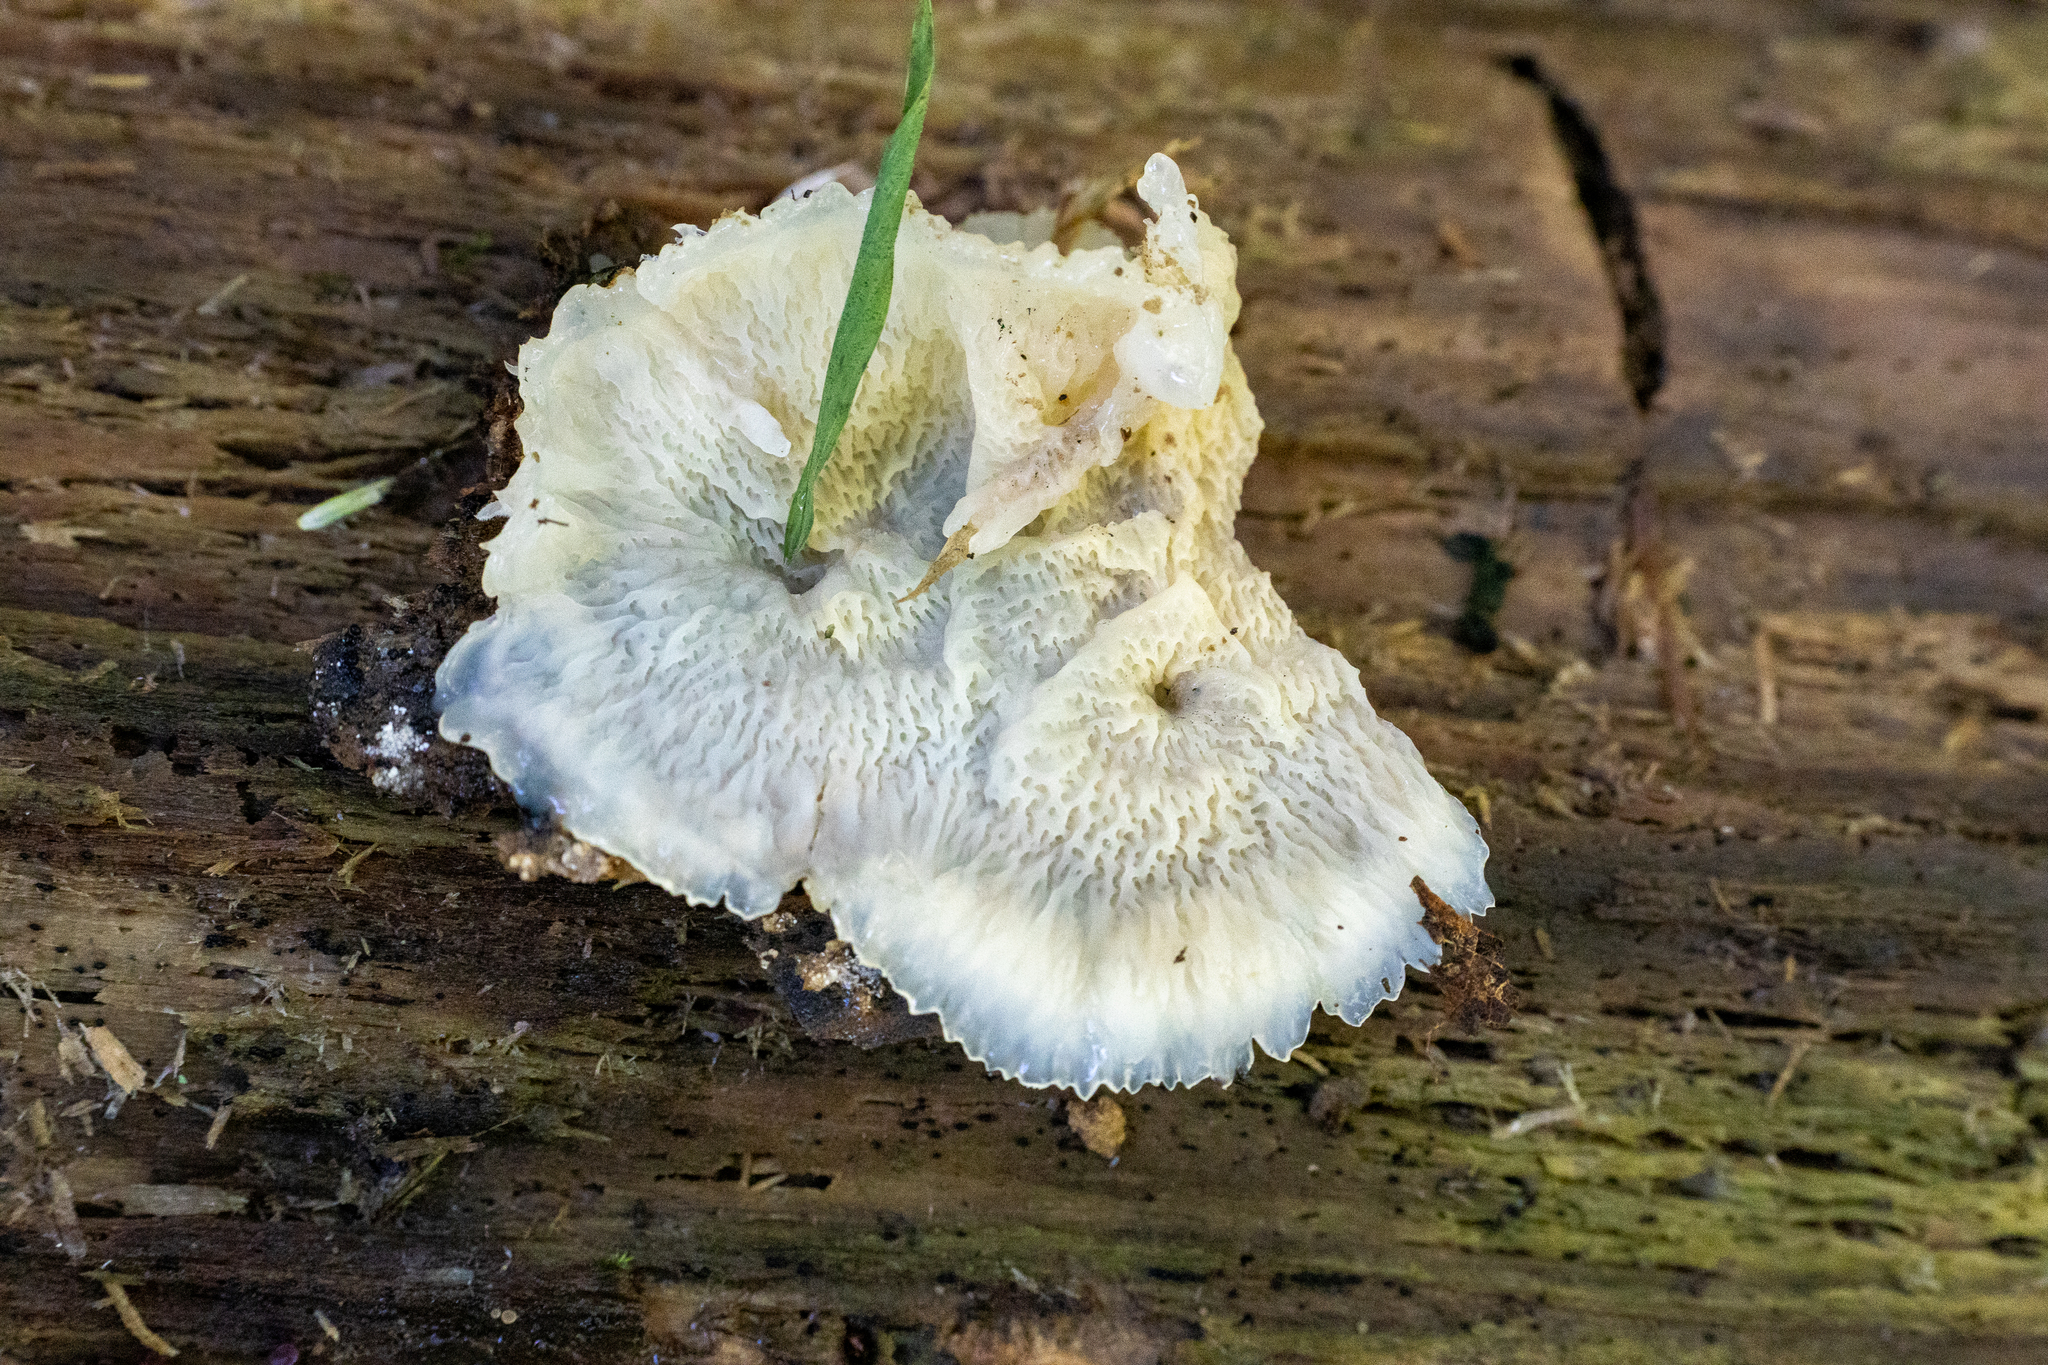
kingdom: Fungi
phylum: Basidiomycota
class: Agaricomycetes
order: Polyporales
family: Meruliaceae
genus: Phlebia
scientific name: Phlebia tremellosa
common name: Jelly rot
